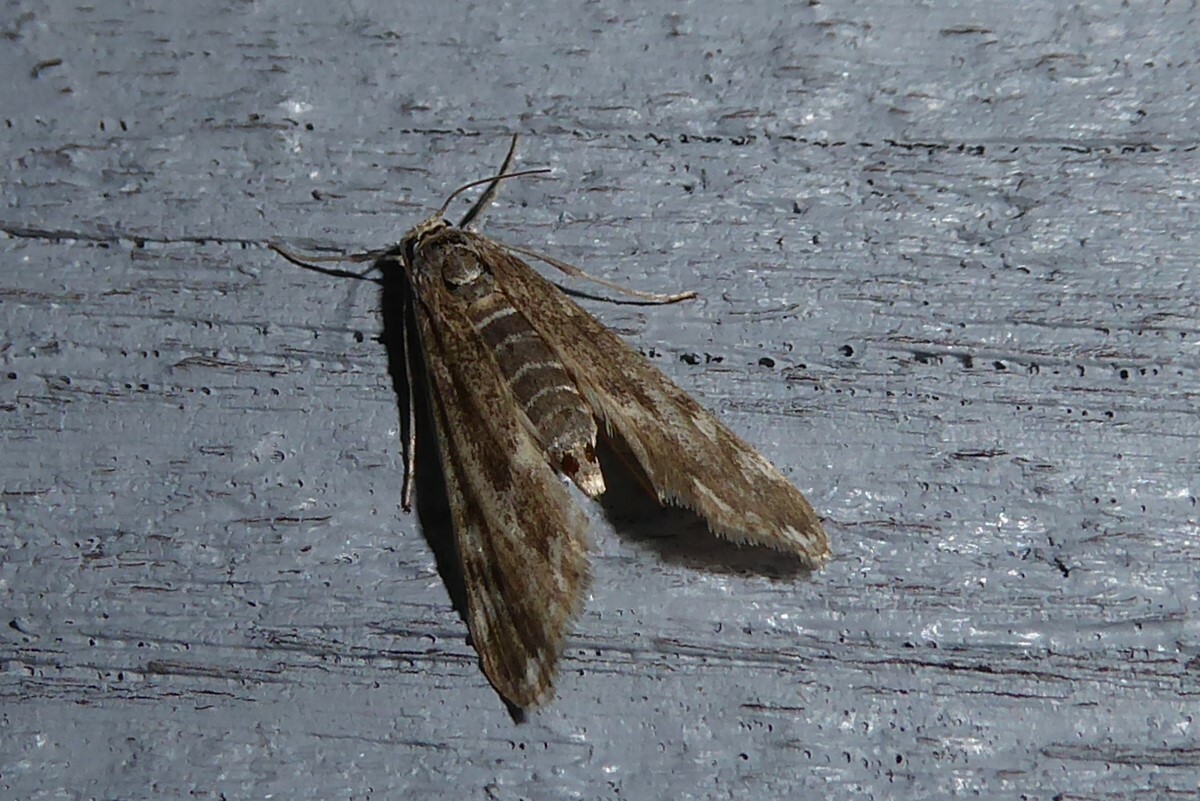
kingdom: Animalia
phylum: Arthropoda
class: Insecta
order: Lepidoptera
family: Crambidae
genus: Hygraula
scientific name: Hygraula nitens
